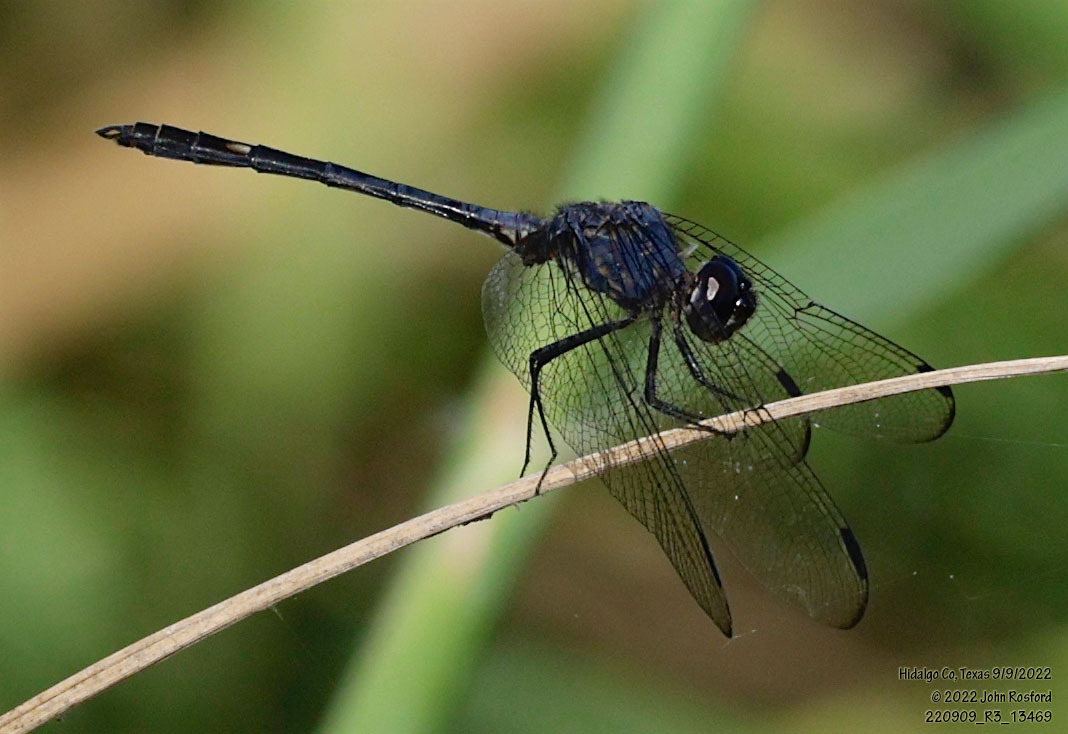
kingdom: Animalia
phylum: Arthropoda
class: Insecta
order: Odonata
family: Libellulidae
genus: Dythemis
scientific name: Dythemis nigrescens
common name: Black setwing
